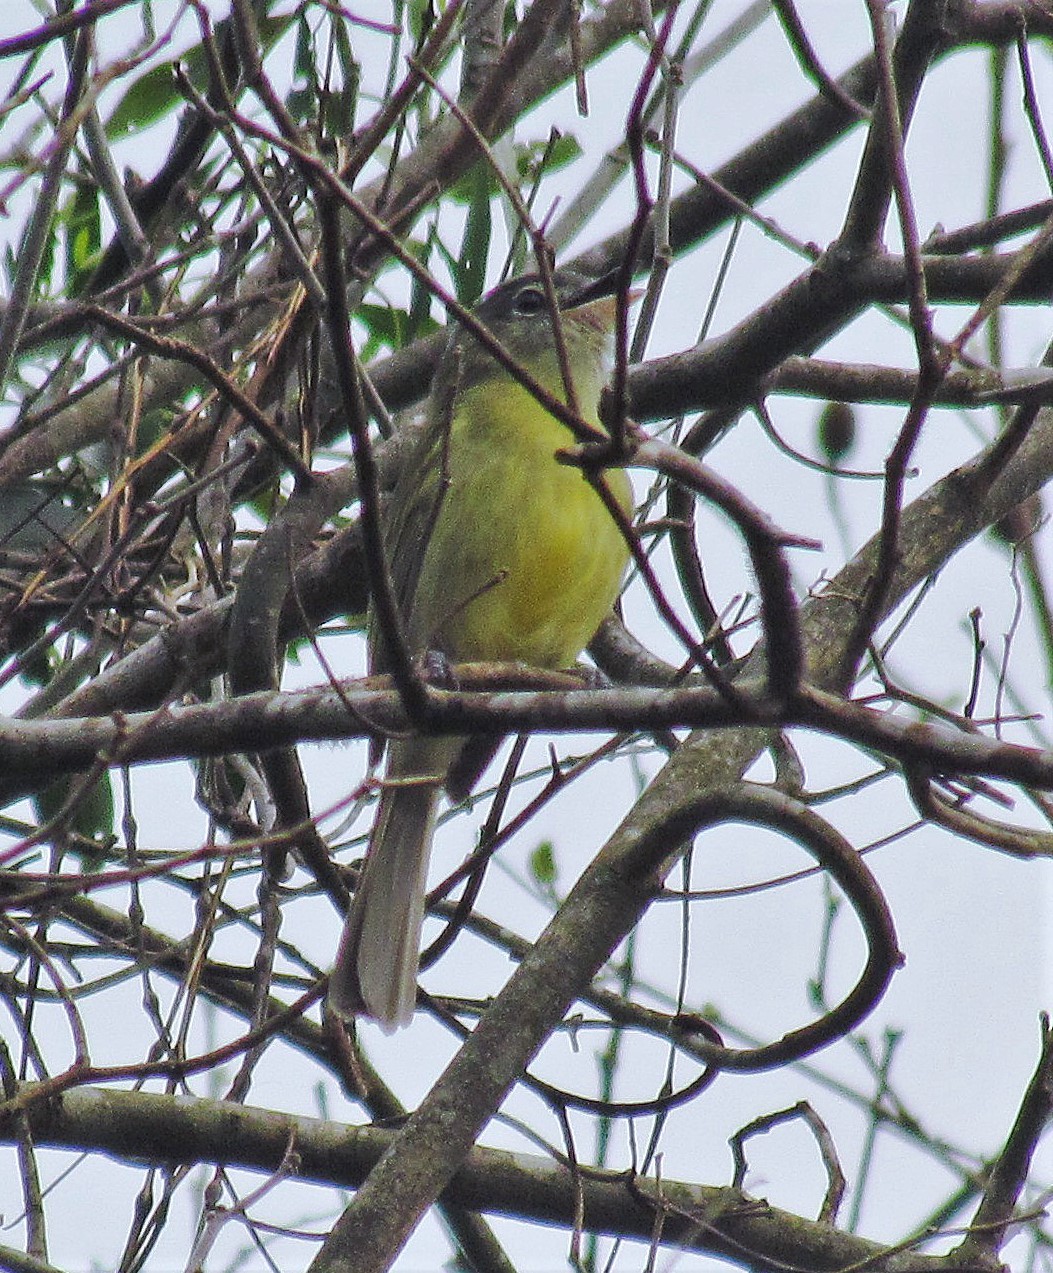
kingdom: Animalia
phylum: Chordata
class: Aves
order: Passeriformes
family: Tyrannidae
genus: Phyllomyias
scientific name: Phyllomyias burmeisteri
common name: Rough-legged tyrannulet
